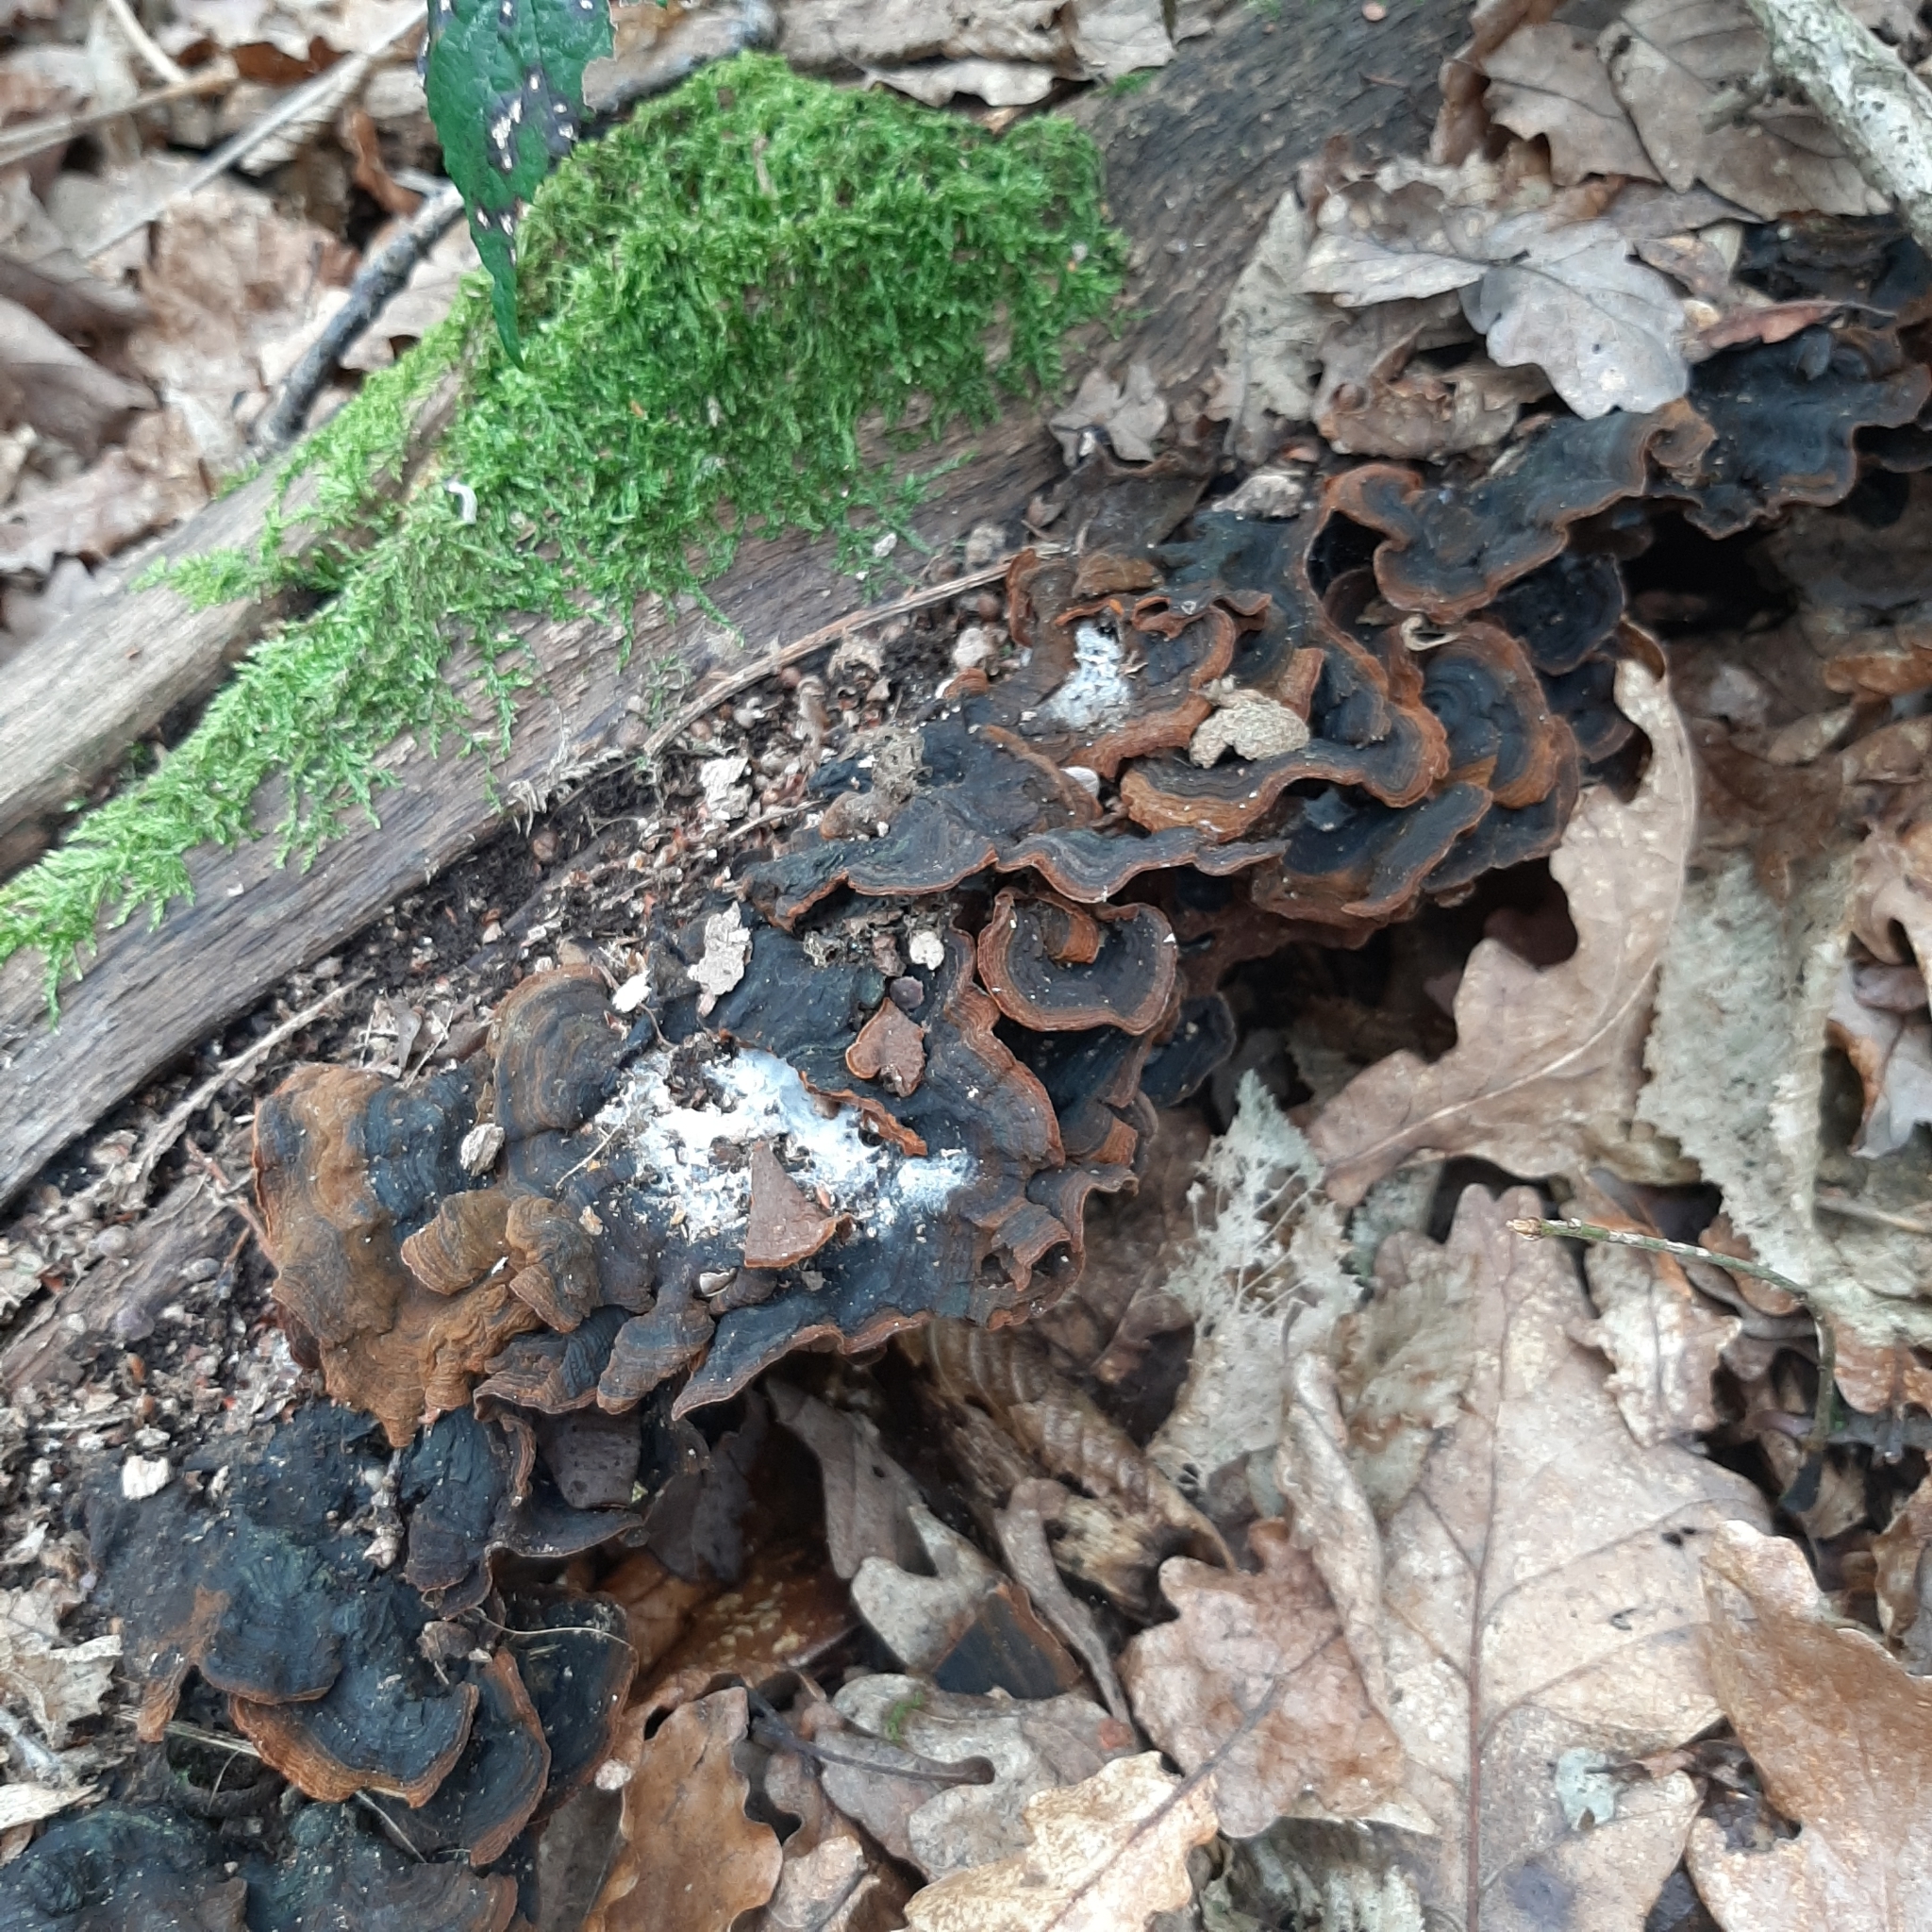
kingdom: Fungi
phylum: Basidiomycota
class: Agaricomycetes
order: Hymenochaetales
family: Hymenochaetaceae
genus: Hymenochaete
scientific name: Hymenochaete rubiginosa
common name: Oak curtain crust
